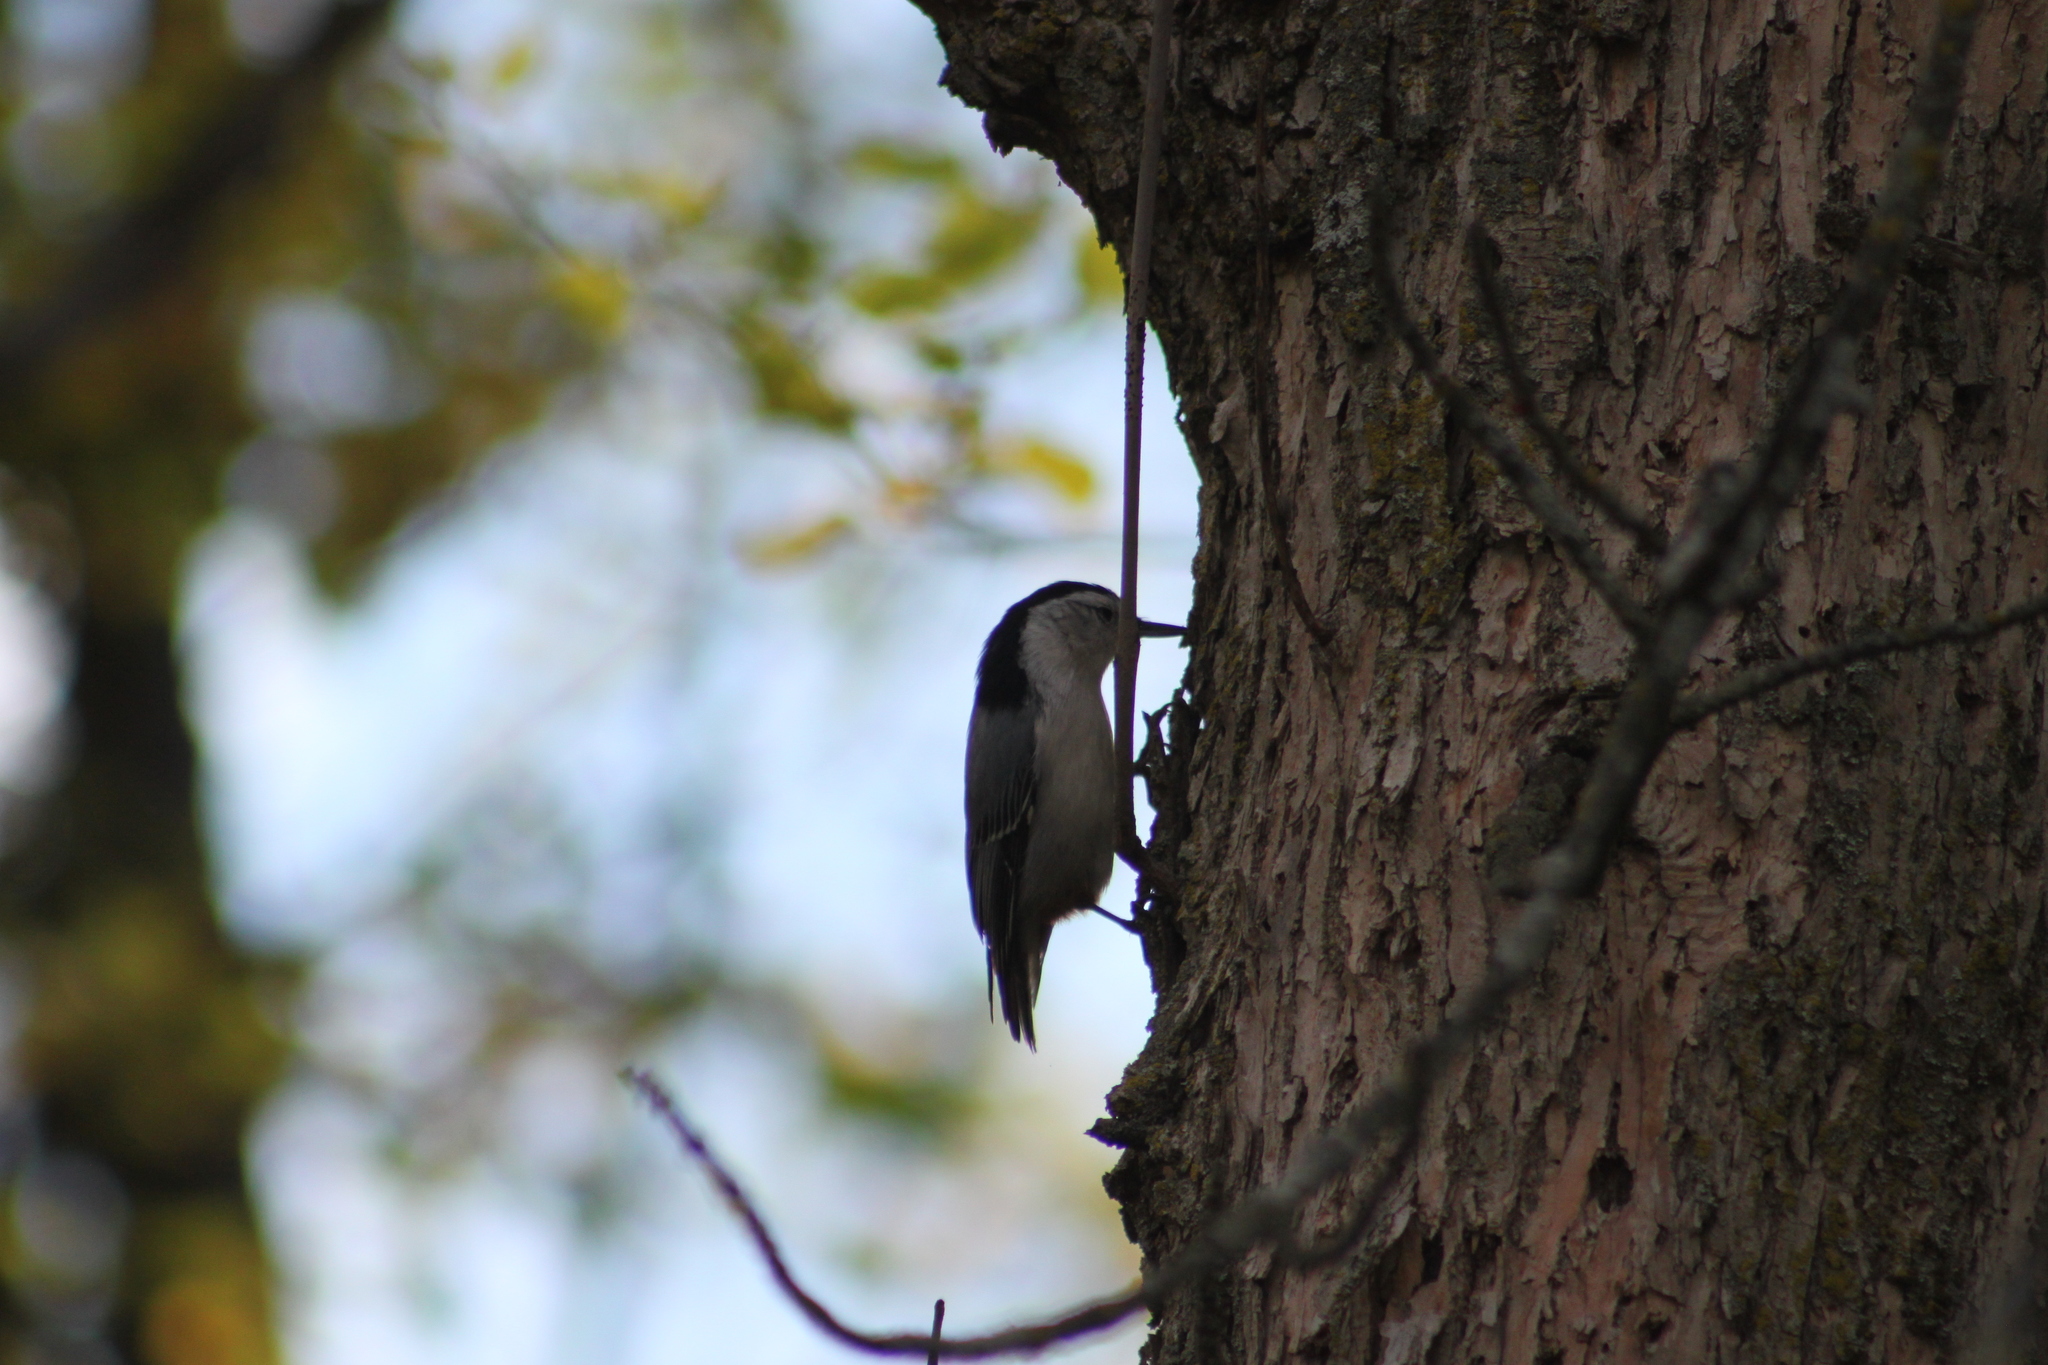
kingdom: Animalia
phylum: Chordata
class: Aves
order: Passeriformes
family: Sittidae
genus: Sitta
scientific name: Sitta carolinensis
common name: White-breasted nuthatch
